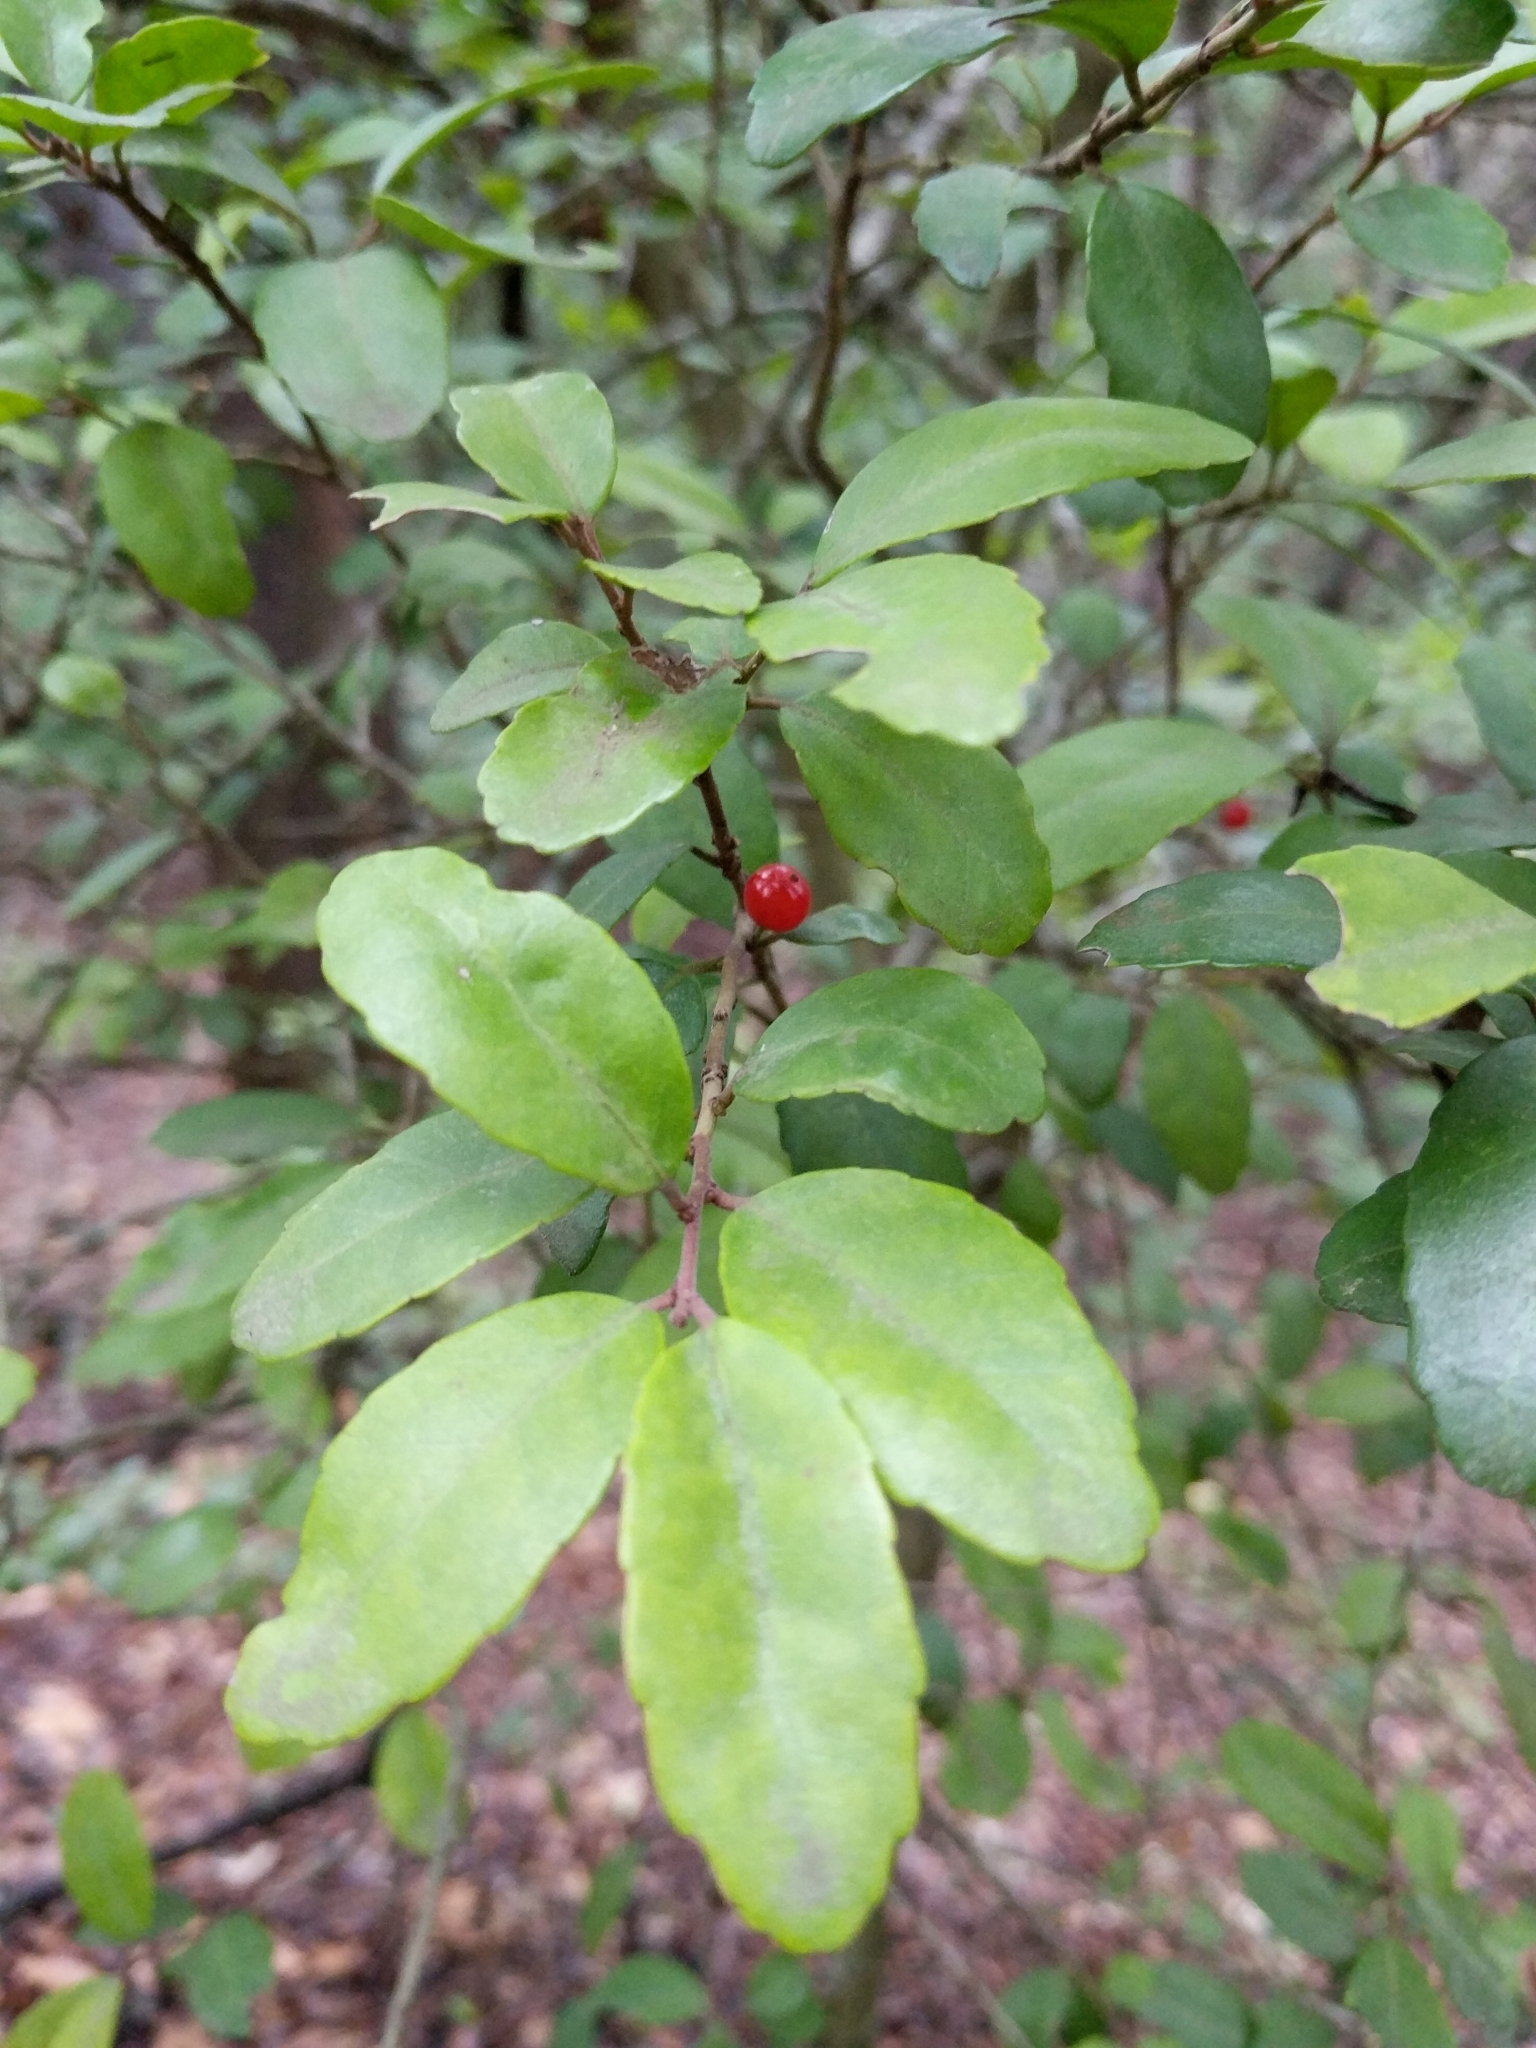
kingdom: Plantae
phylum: Tracheophyta
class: Magnoliopsida
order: Aquifoliales
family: Aquifoliaceae
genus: Ilex
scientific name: Ilex vomitoria
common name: Yaupon holly
